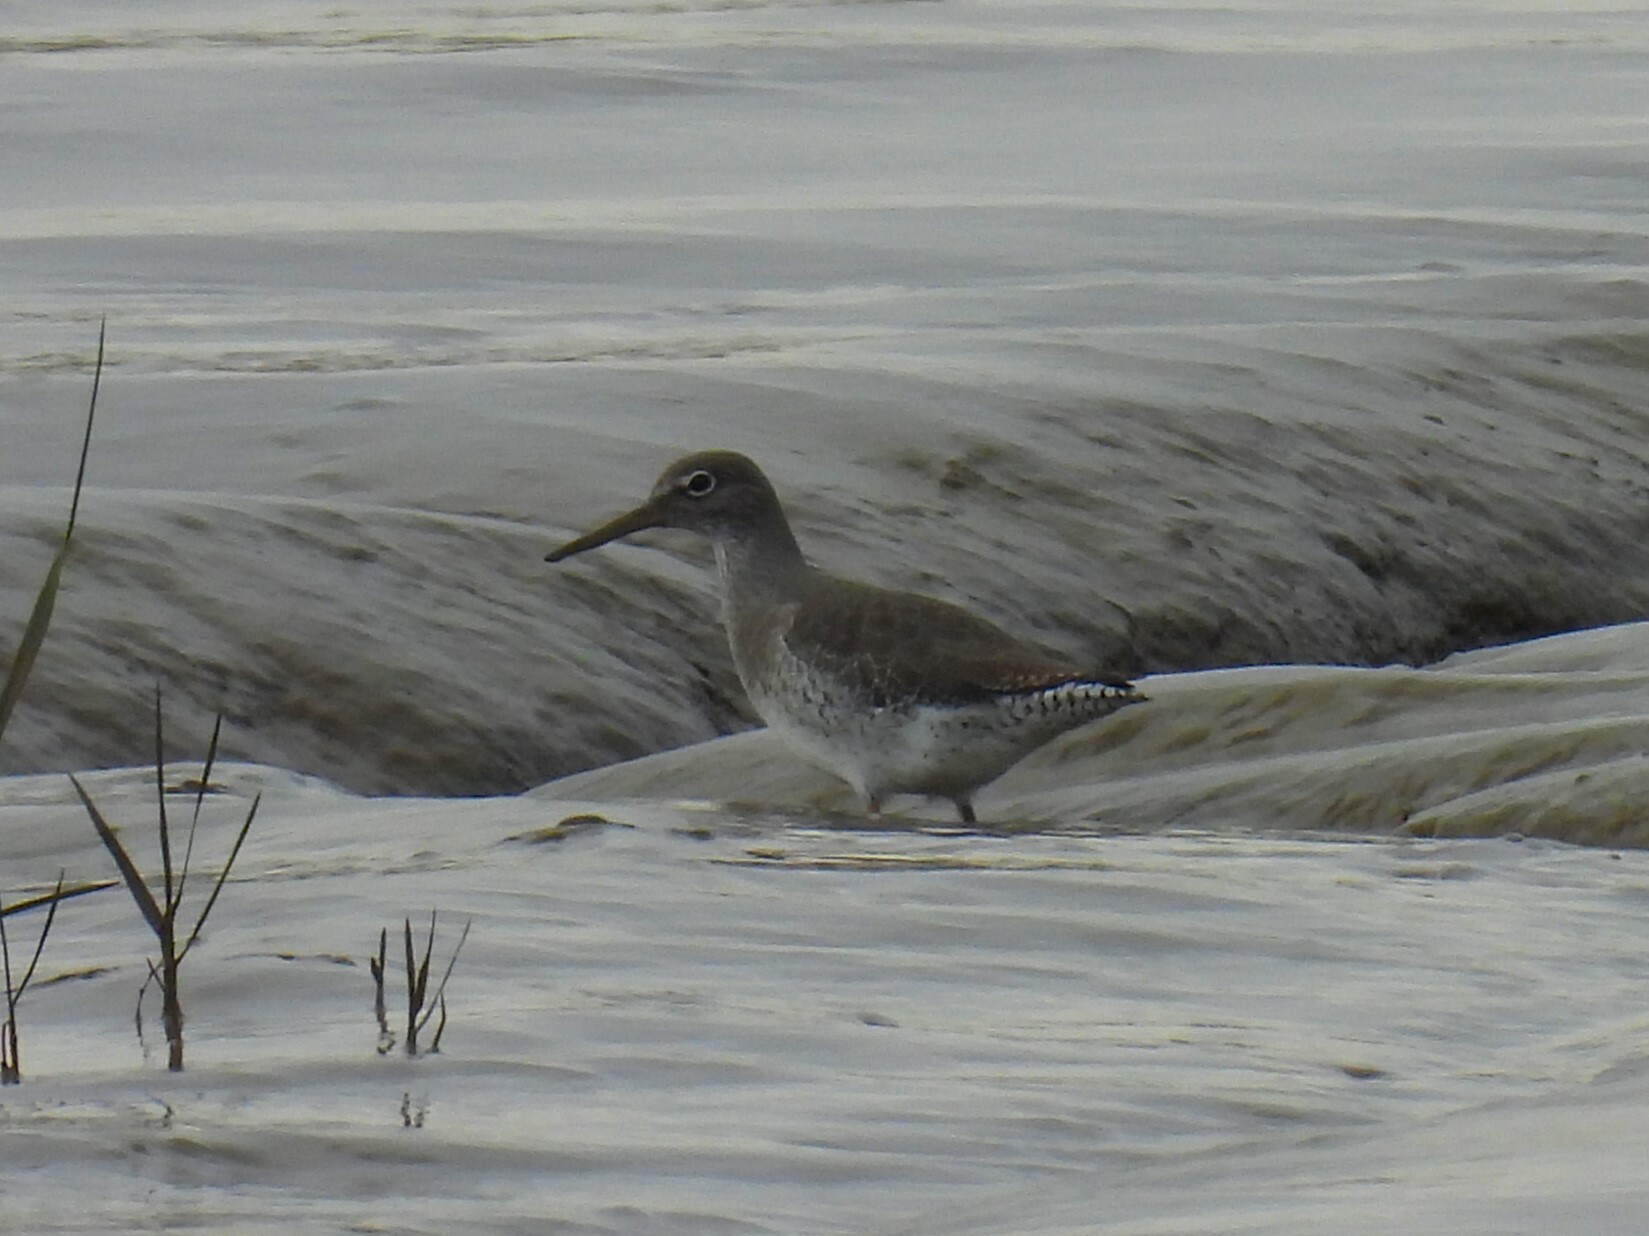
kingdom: Animalia
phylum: Chordata
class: Aves
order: Charadriiformes
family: Scolopacidae
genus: Tringa
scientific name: Tringa totanus
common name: Common redshank
